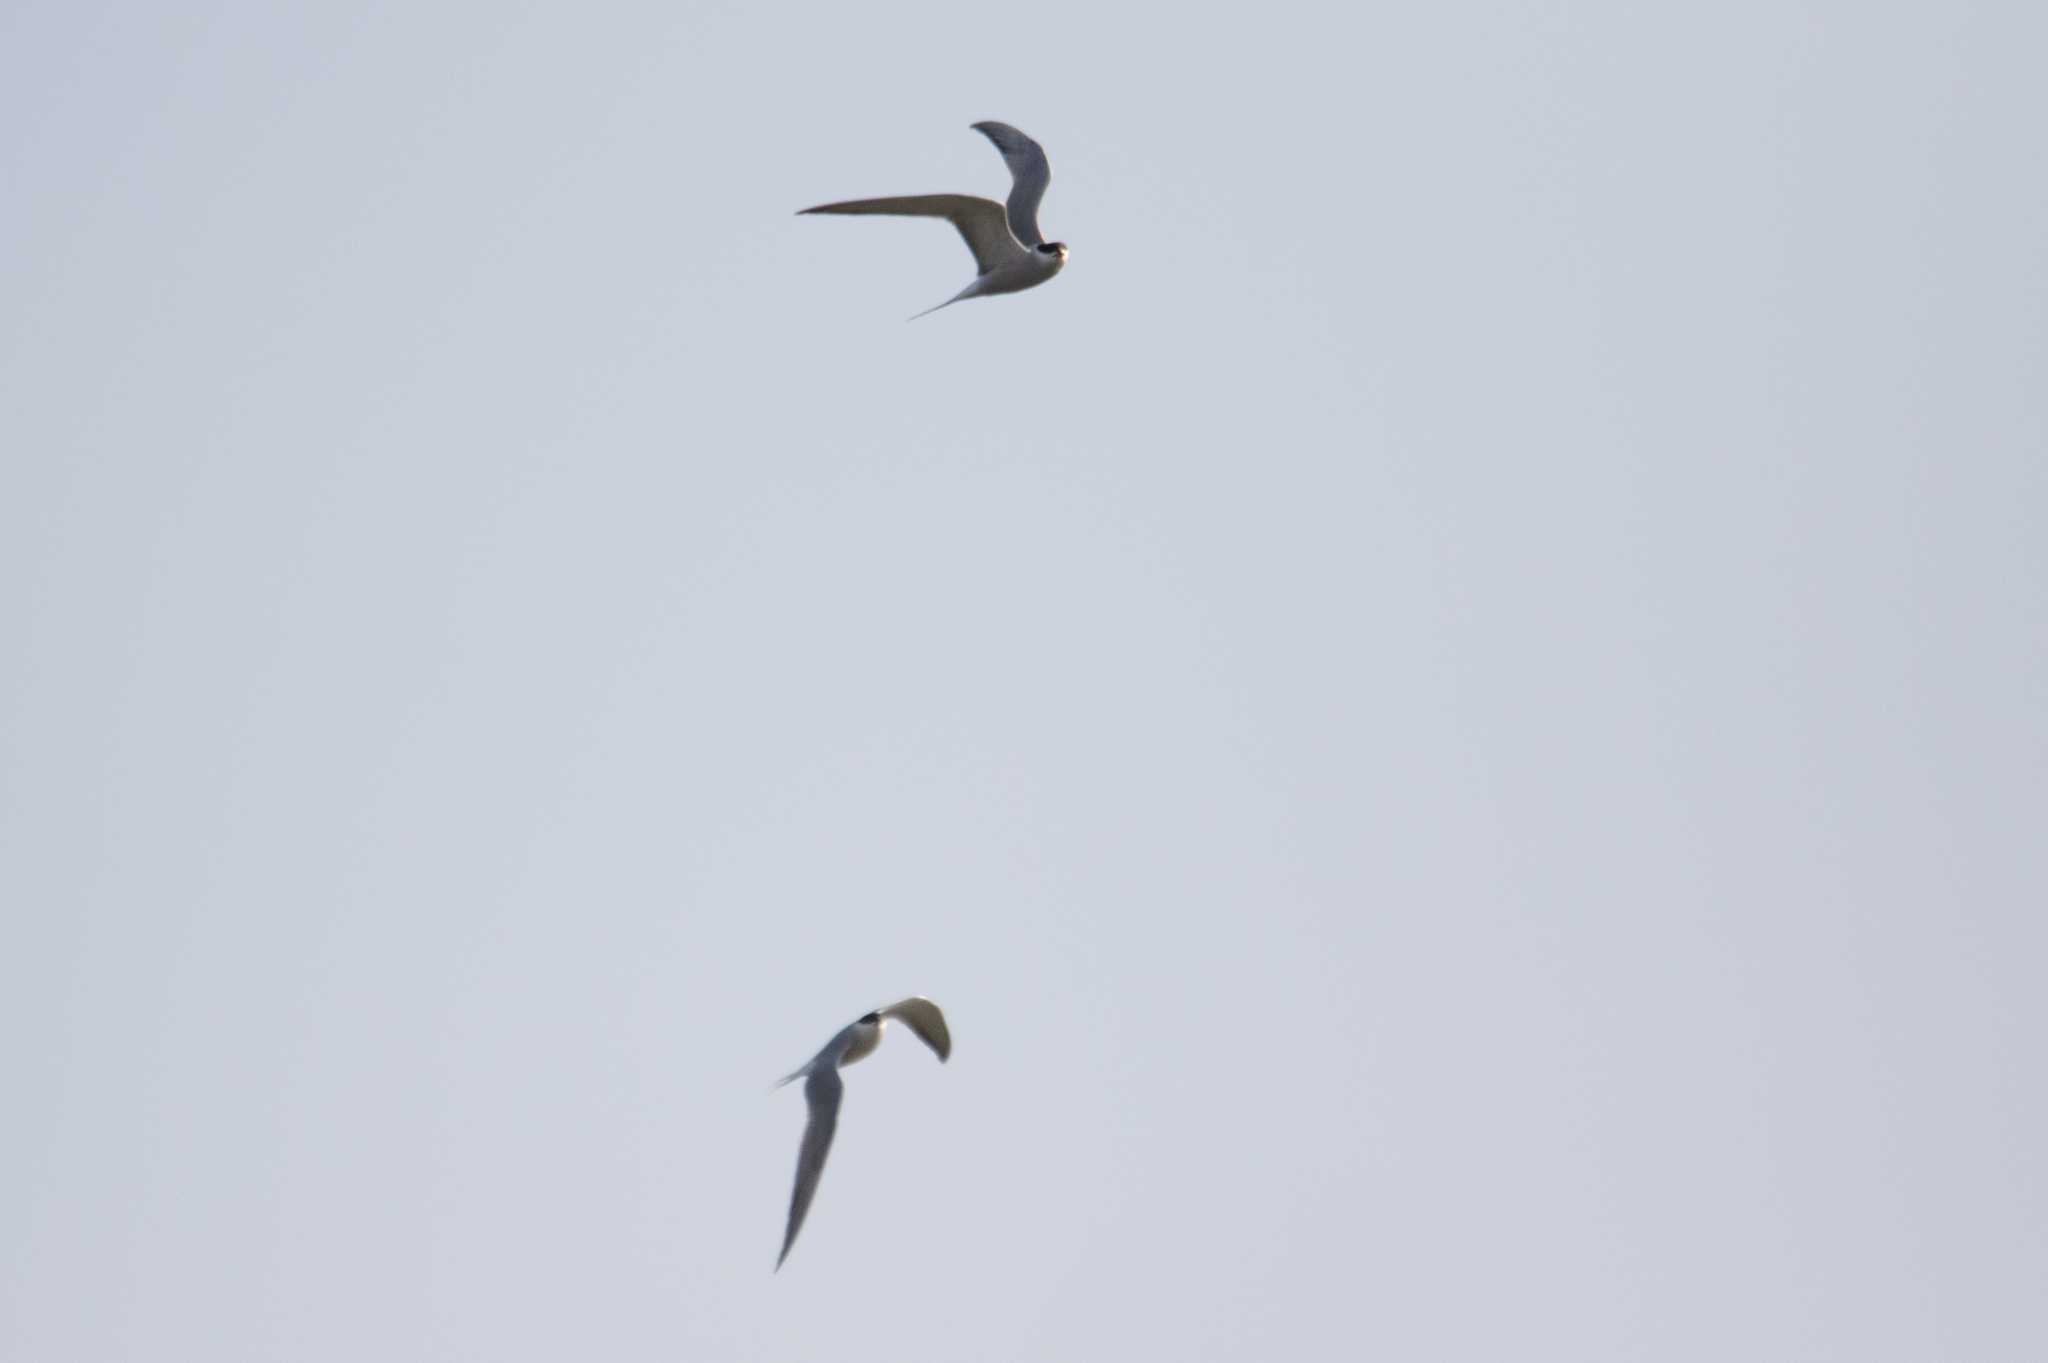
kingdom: Animalia
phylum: Chordata
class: Aves
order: Charadriiformes
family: Laridae
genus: Sterna
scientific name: Sterna hirundo
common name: Common tern
